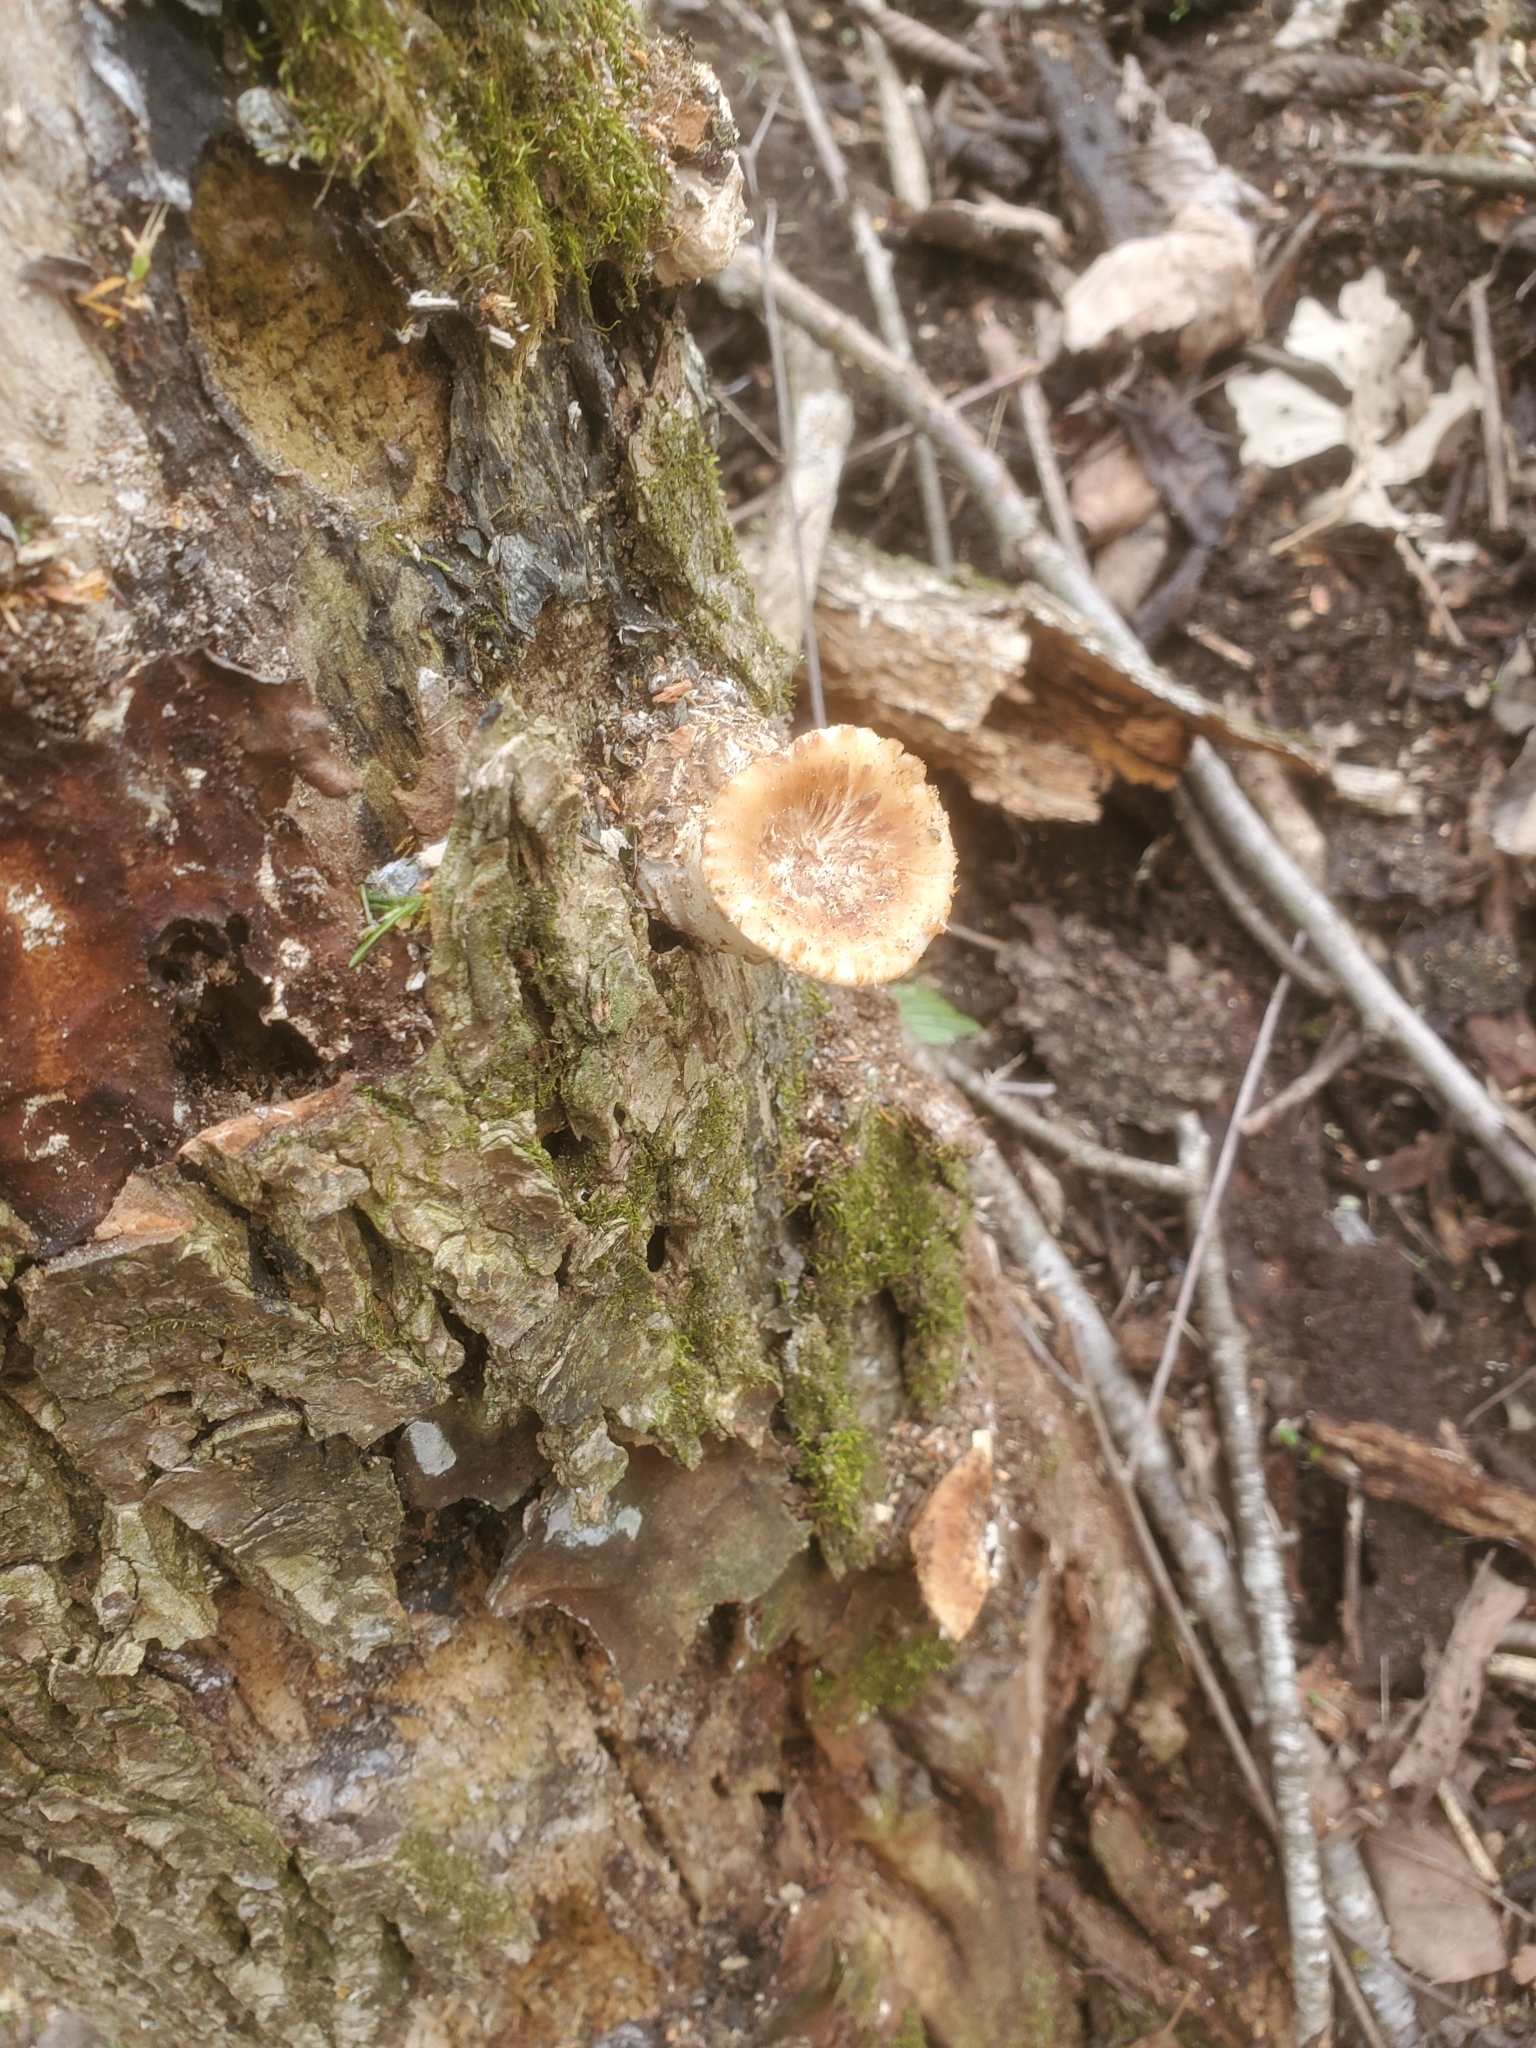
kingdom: Fungi
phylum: Basidiomycota
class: Agaricomycetes
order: Polyporales
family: Polyporaceae
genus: Cerioporus
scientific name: Cerioporus squamosus
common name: Dryad's saddle
